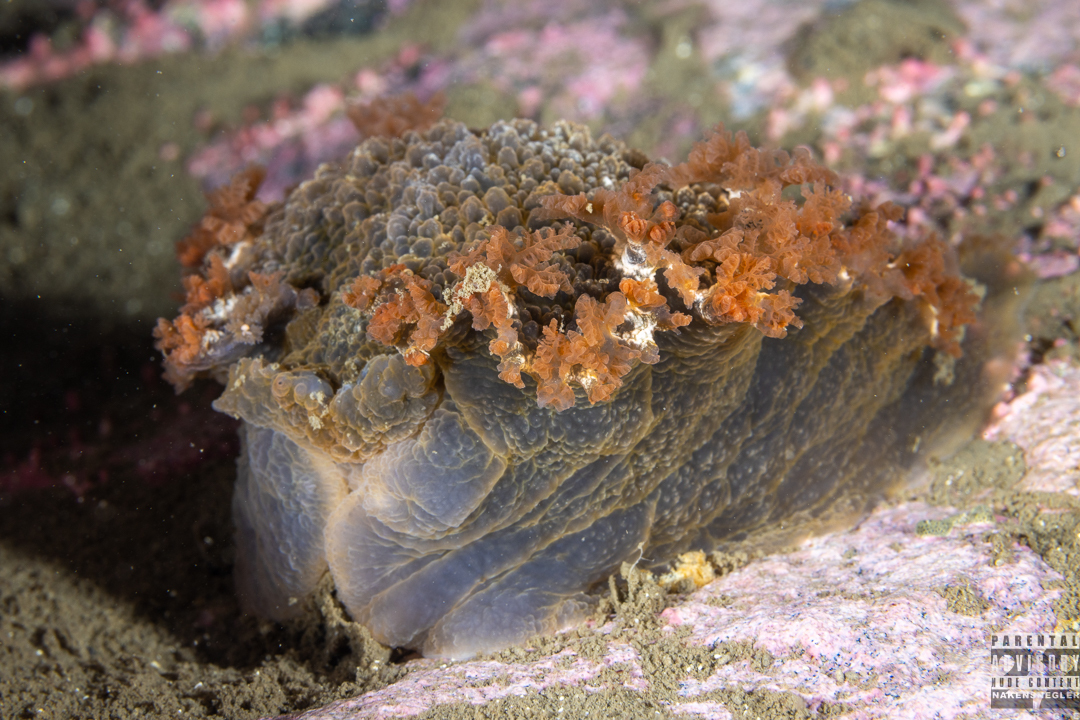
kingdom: Animalia
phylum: Mollusca
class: Gastropoda
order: Nudibranchia
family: Tritoniidae
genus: Tritonia
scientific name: Tritonia hombergii
